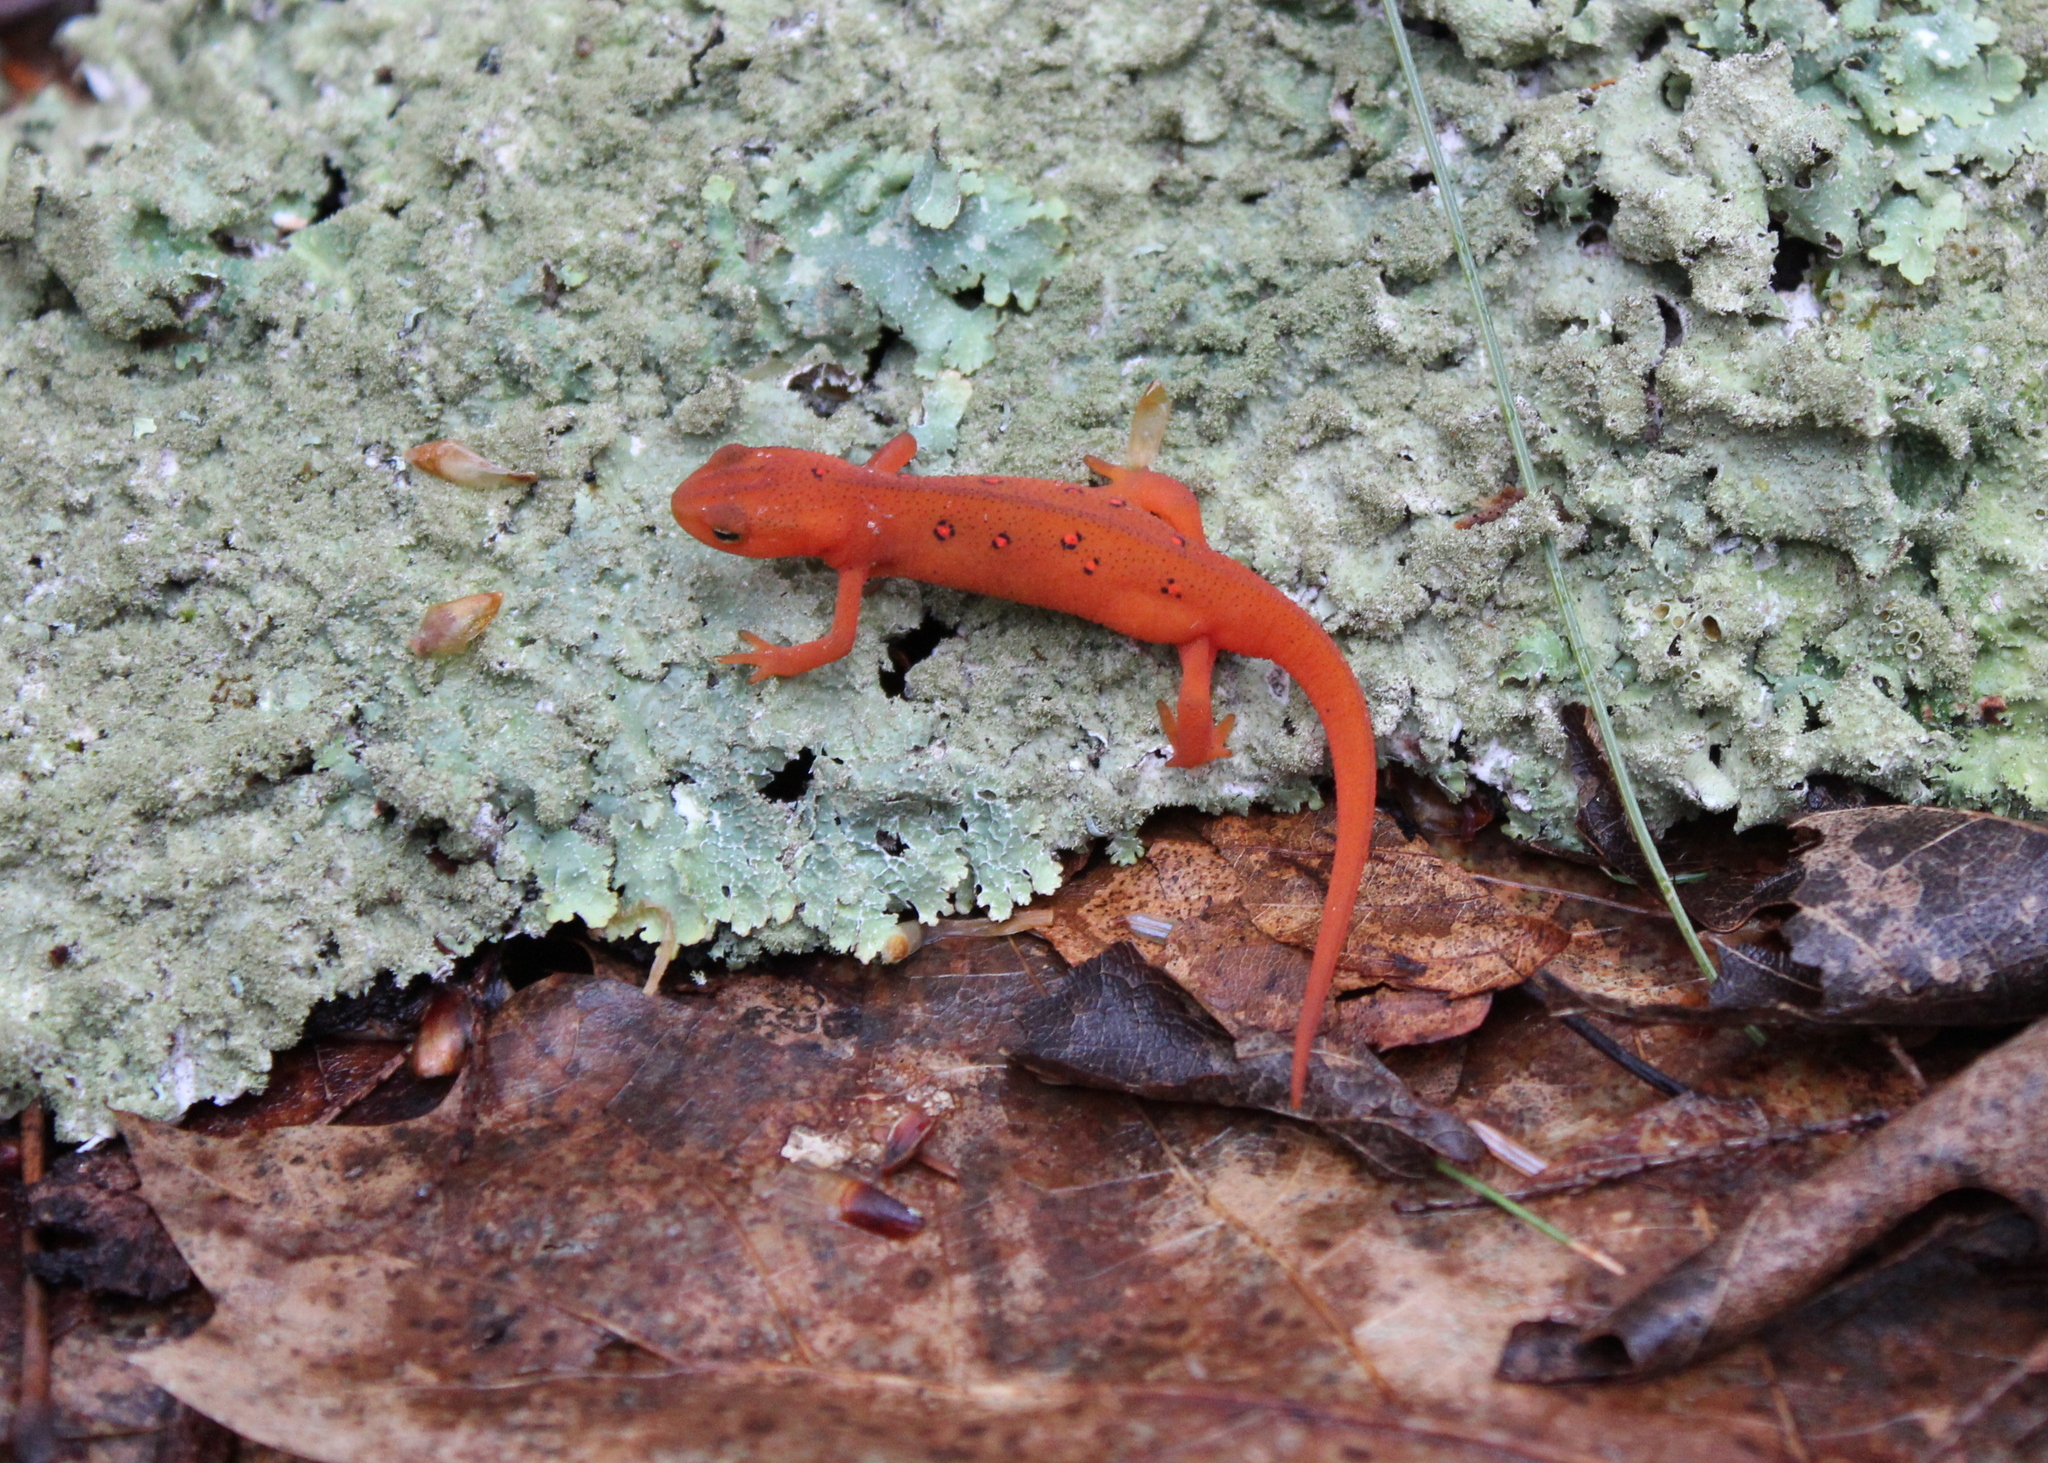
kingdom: Animalia
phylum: Chordata
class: Amphibia
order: Caudata
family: Salamandridae
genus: Notophthalmus
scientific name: Notophthalmus viridescens
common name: Eastern newt
